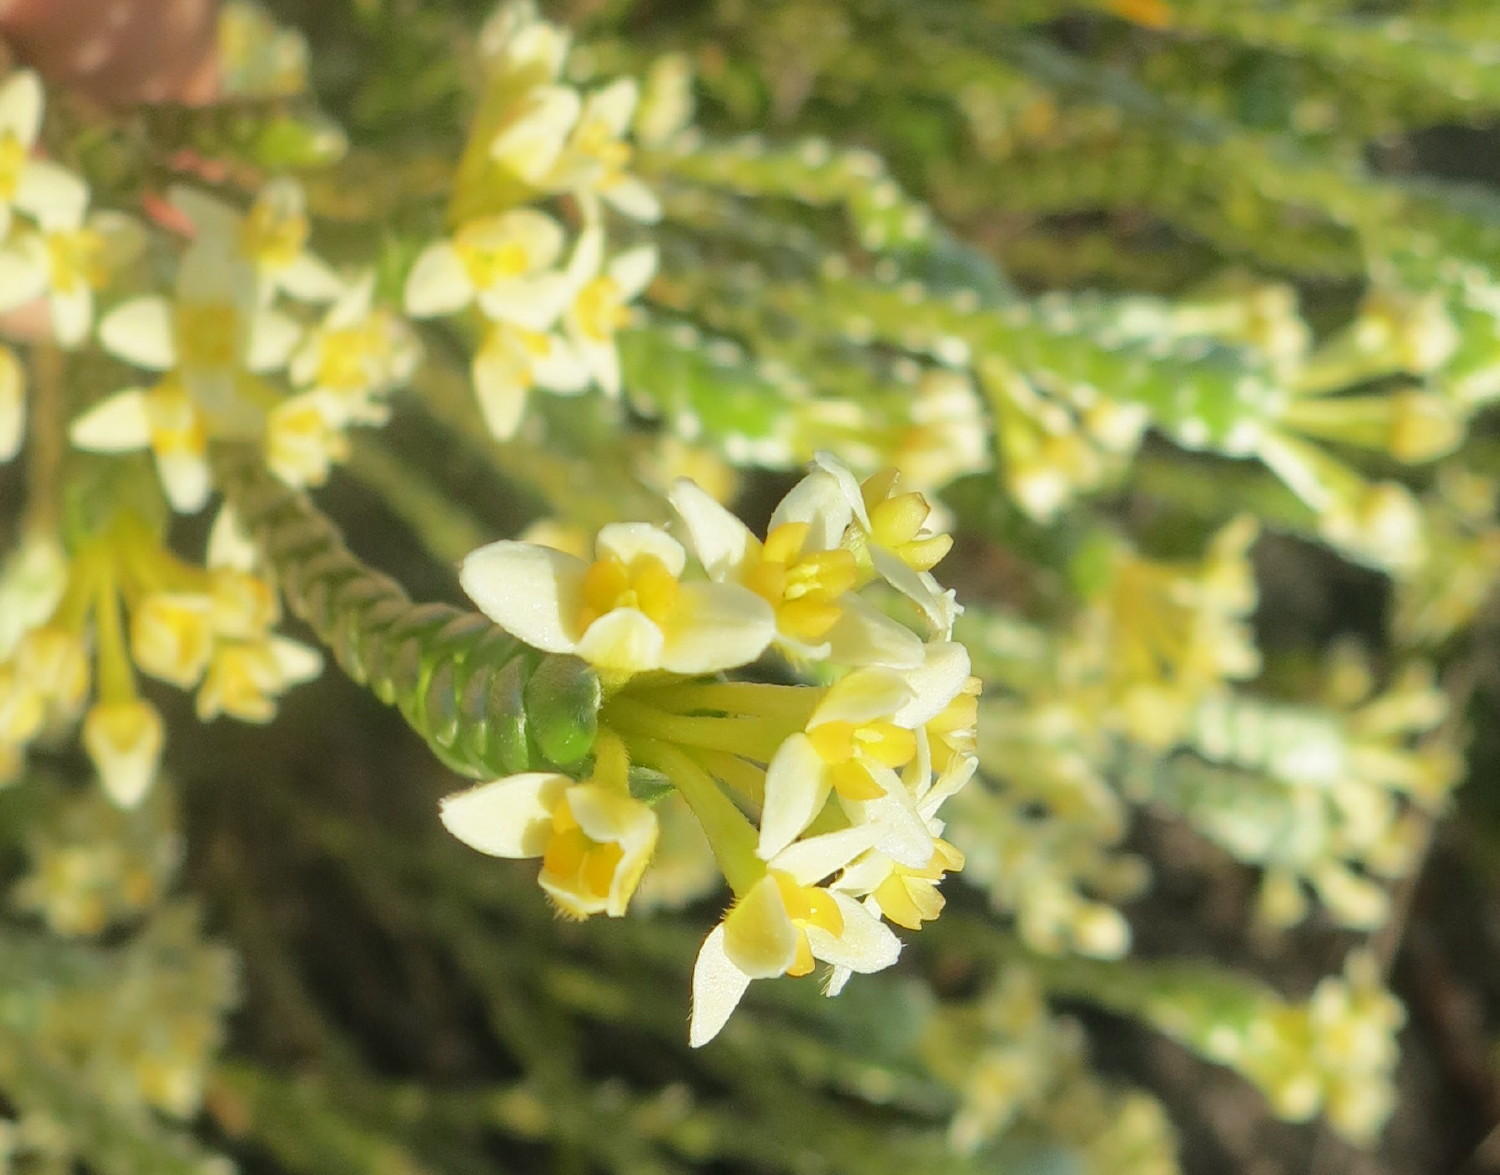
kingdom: Plantae
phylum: Tracheophyta
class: Magnoliopsida
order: Malvales
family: Thymelaeaceae
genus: Gnidia
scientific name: Gnidia chrysophylla
